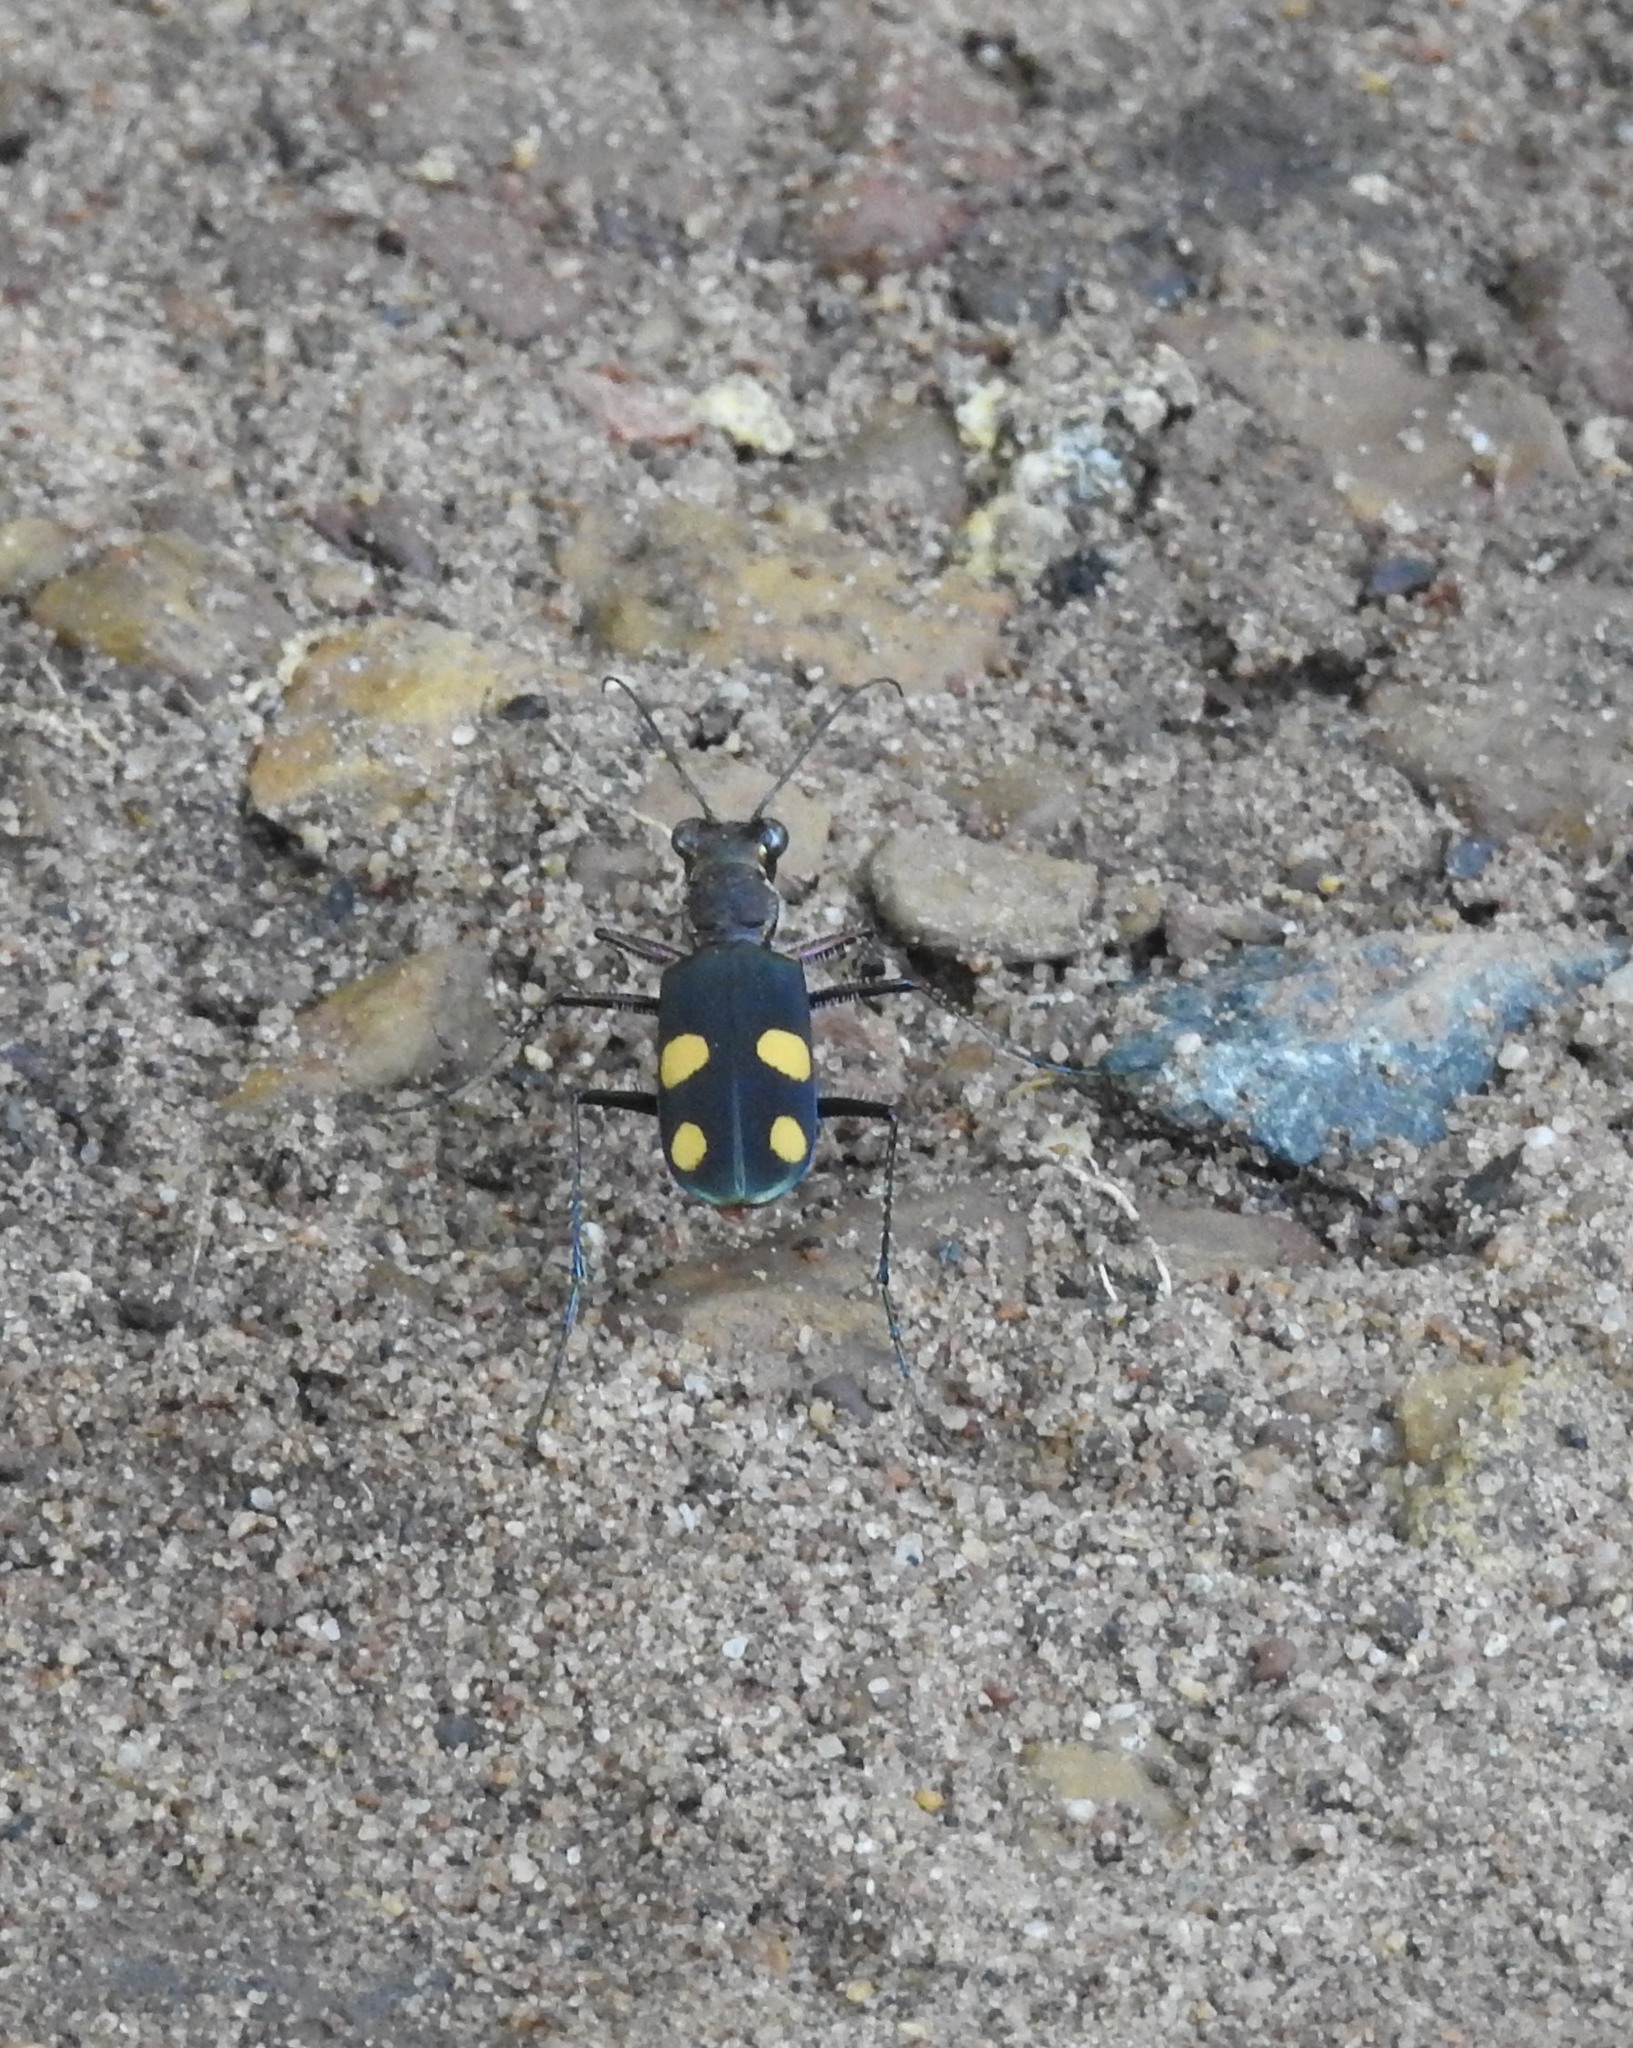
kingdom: Animalia
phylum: Arthropoda
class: Insecta
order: Coleoptera
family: Carabidae
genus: Cicindela
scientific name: Cicindela bicolor
